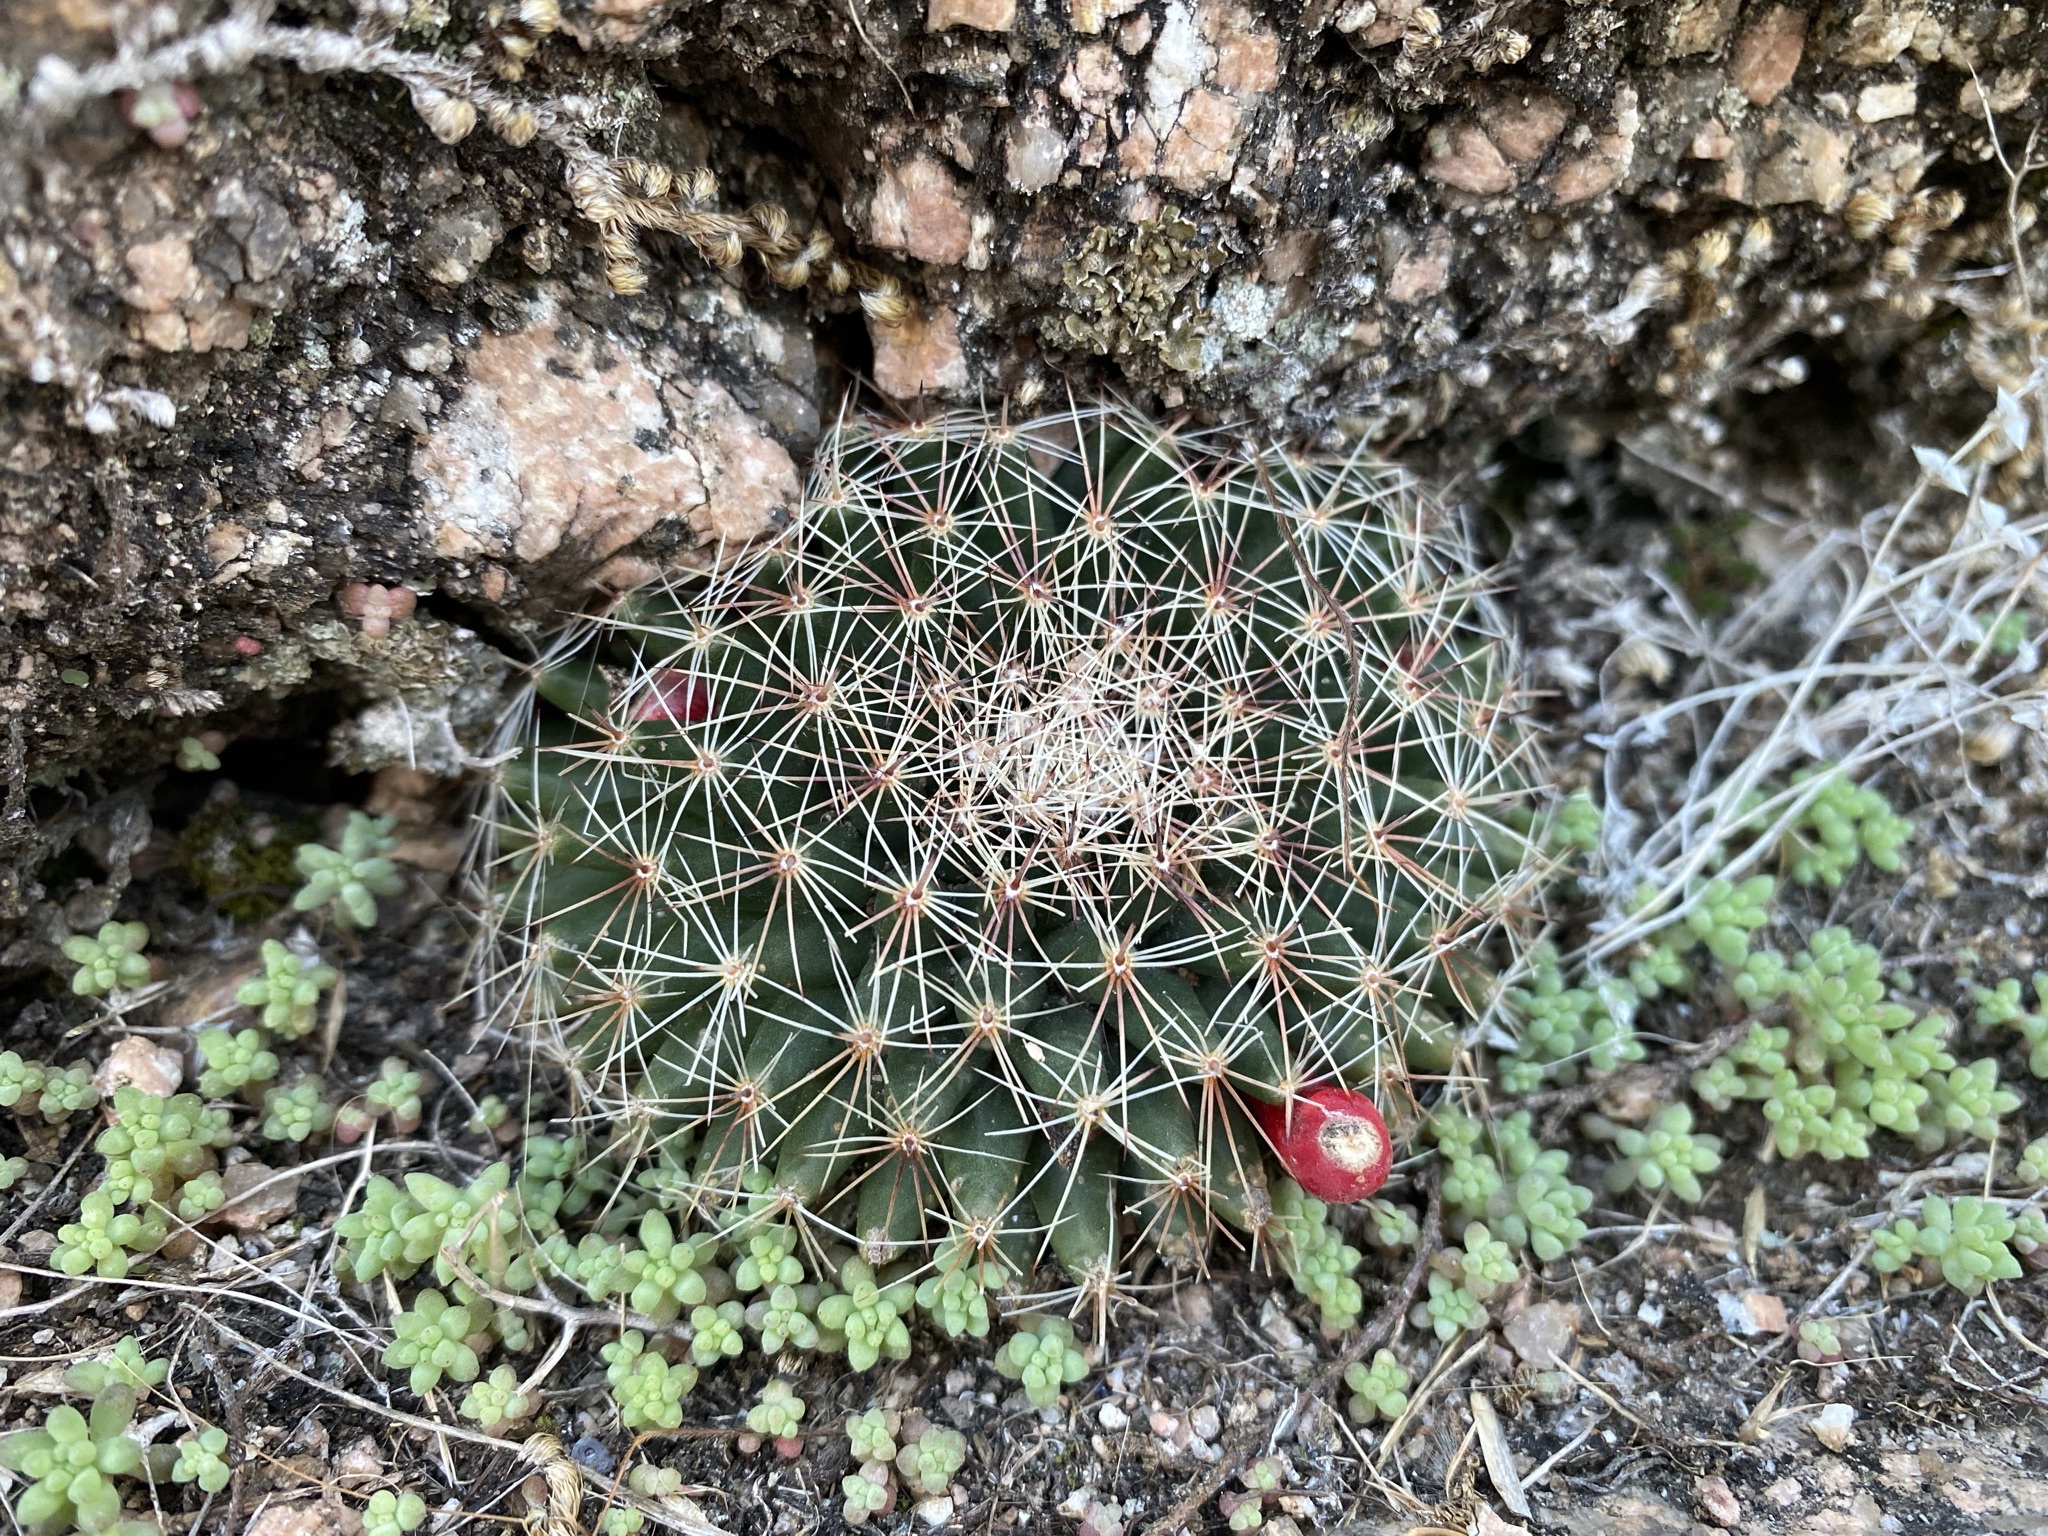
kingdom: Plantae
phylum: Tracheophyta
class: Magnoliopsida
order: Caryophyllales
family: Cactaceae
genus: Mammillaria
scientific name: Mammillaria heyderi
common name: Little nipple cactus
